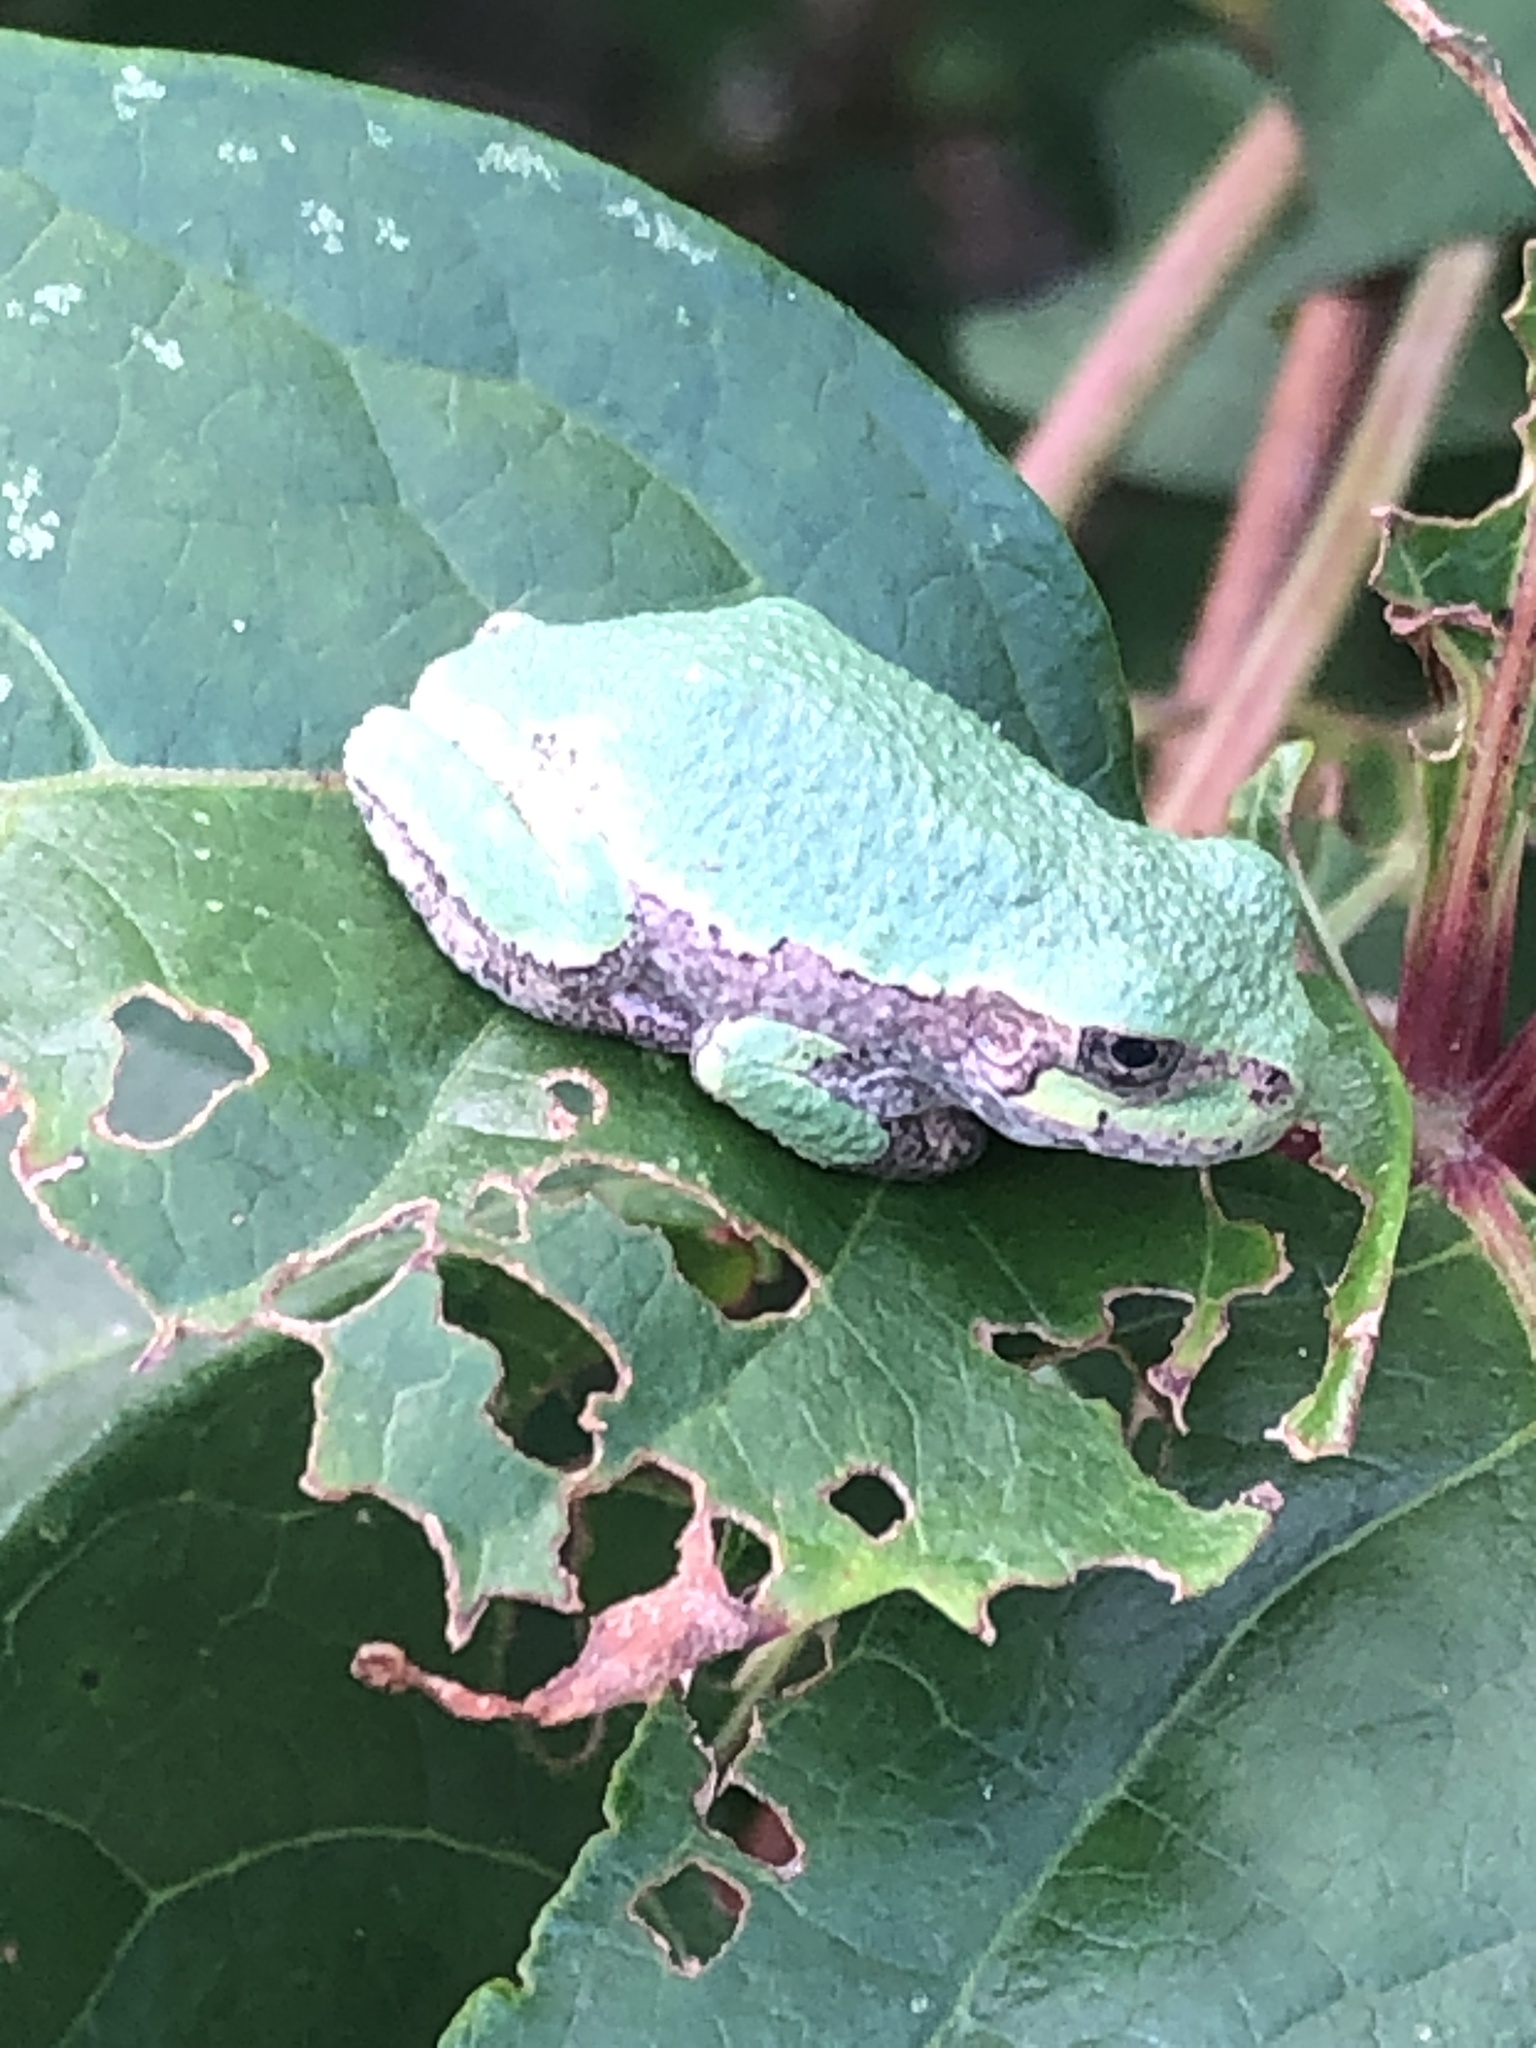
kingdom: Animalia
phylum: Chordata
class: Amphibia
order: Anura
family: Hylidae
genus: Dryophytes
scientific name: Dryophytes versicolor
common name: Gray treefrog
